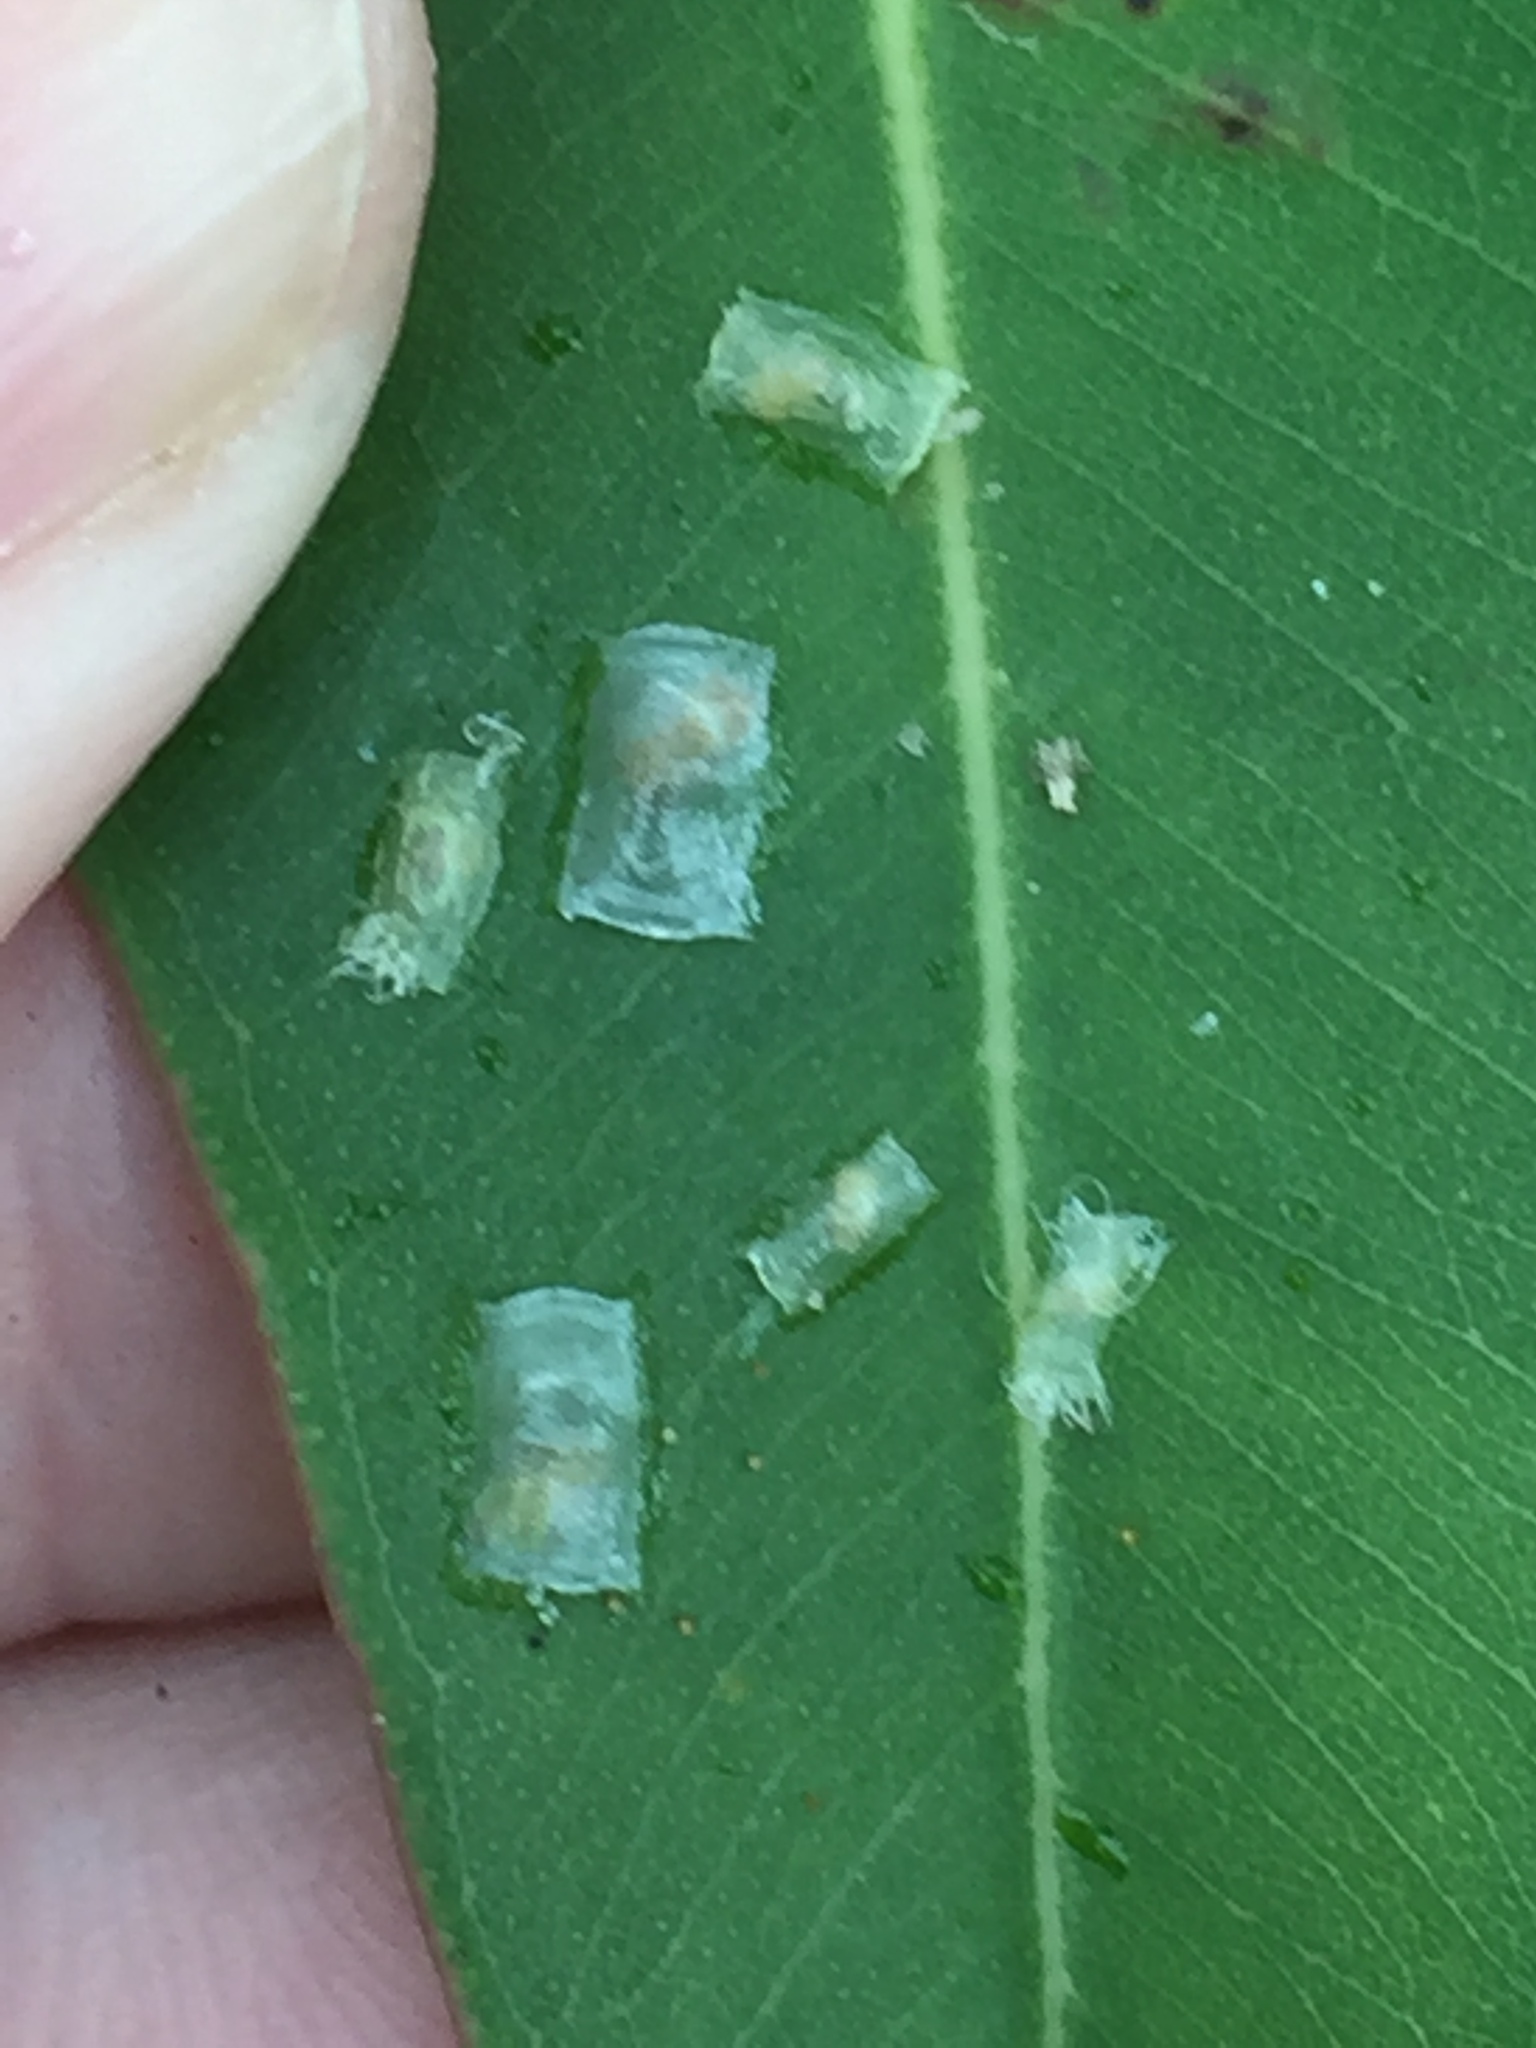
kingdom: Animalia
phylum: Arthropoda
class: Insecta
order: Hemiptera
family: Aphalaridae
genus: Glycaspis
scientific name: Glycaspis granulata
